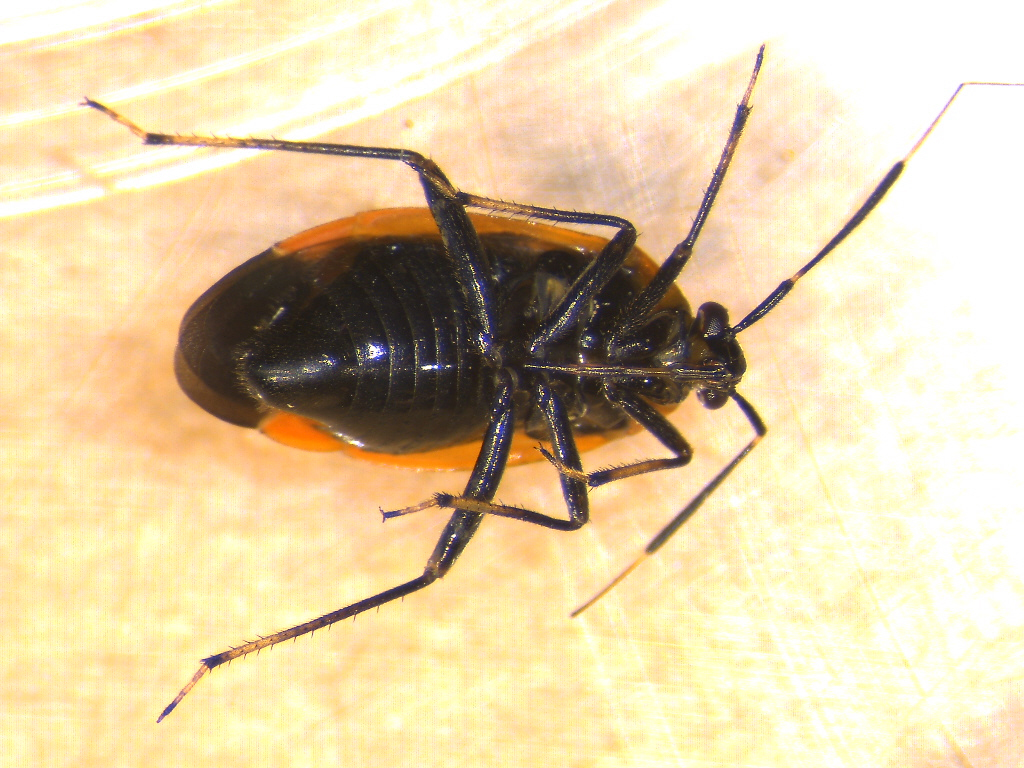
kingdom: Animalia
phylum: Arthropoda
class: Insecta
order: Hemiptera
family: Miridae
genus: Metriorrhynchomiris
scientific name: Metriorrhynchomiris dislocatus
